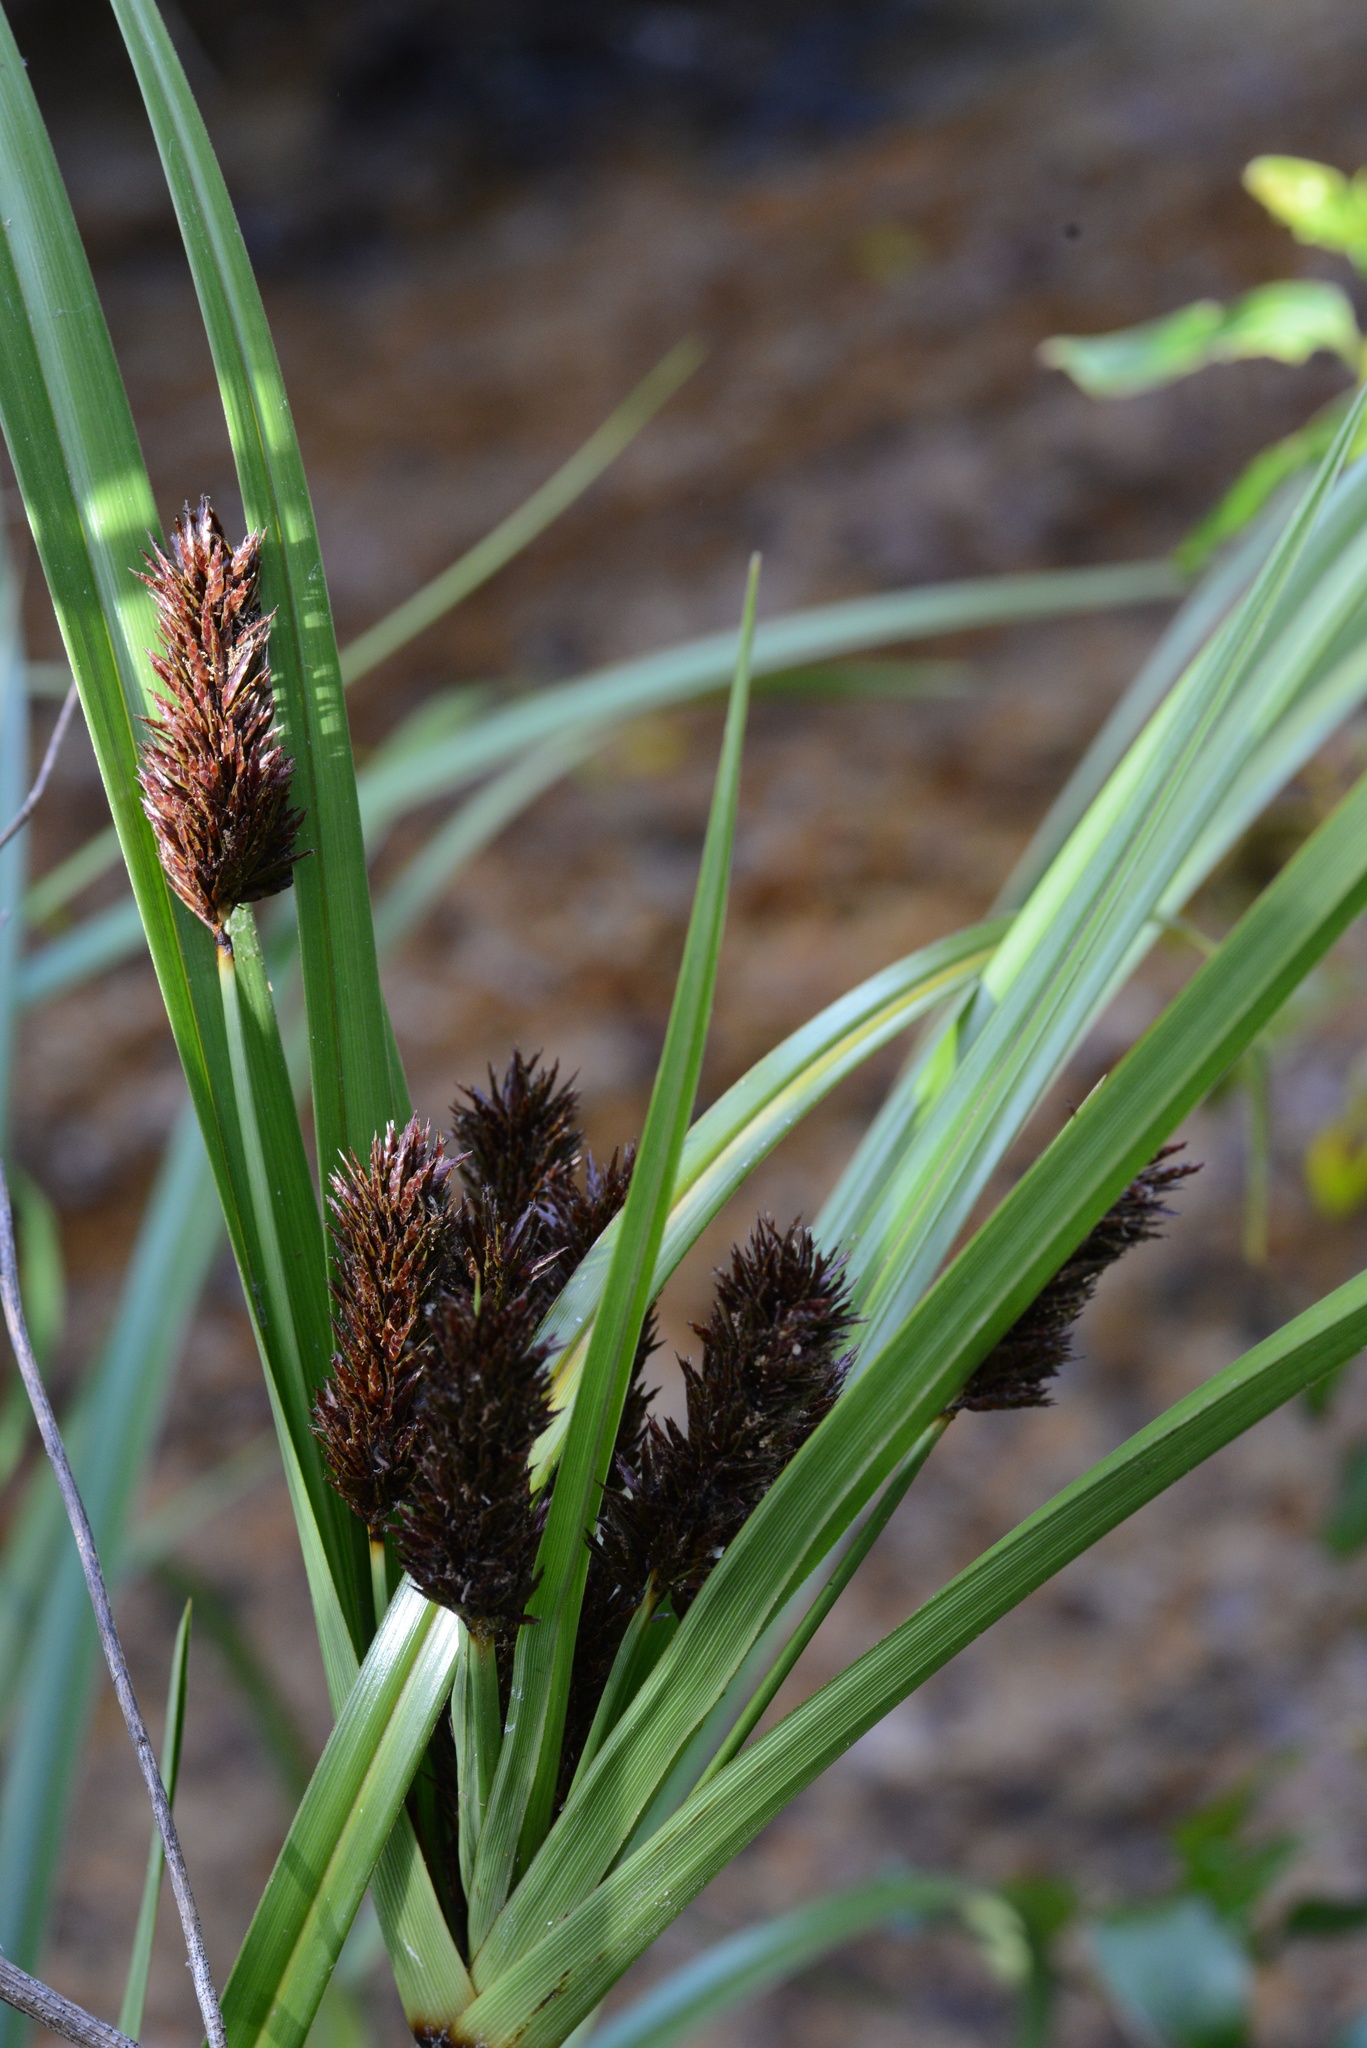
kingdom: Plantae
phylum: Tracheophyta
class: Liliopsida
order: Poales
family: Cyperaceae
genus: Cyperus
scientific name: Cyperus ustulatus
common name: Giant umbrella-sedge
